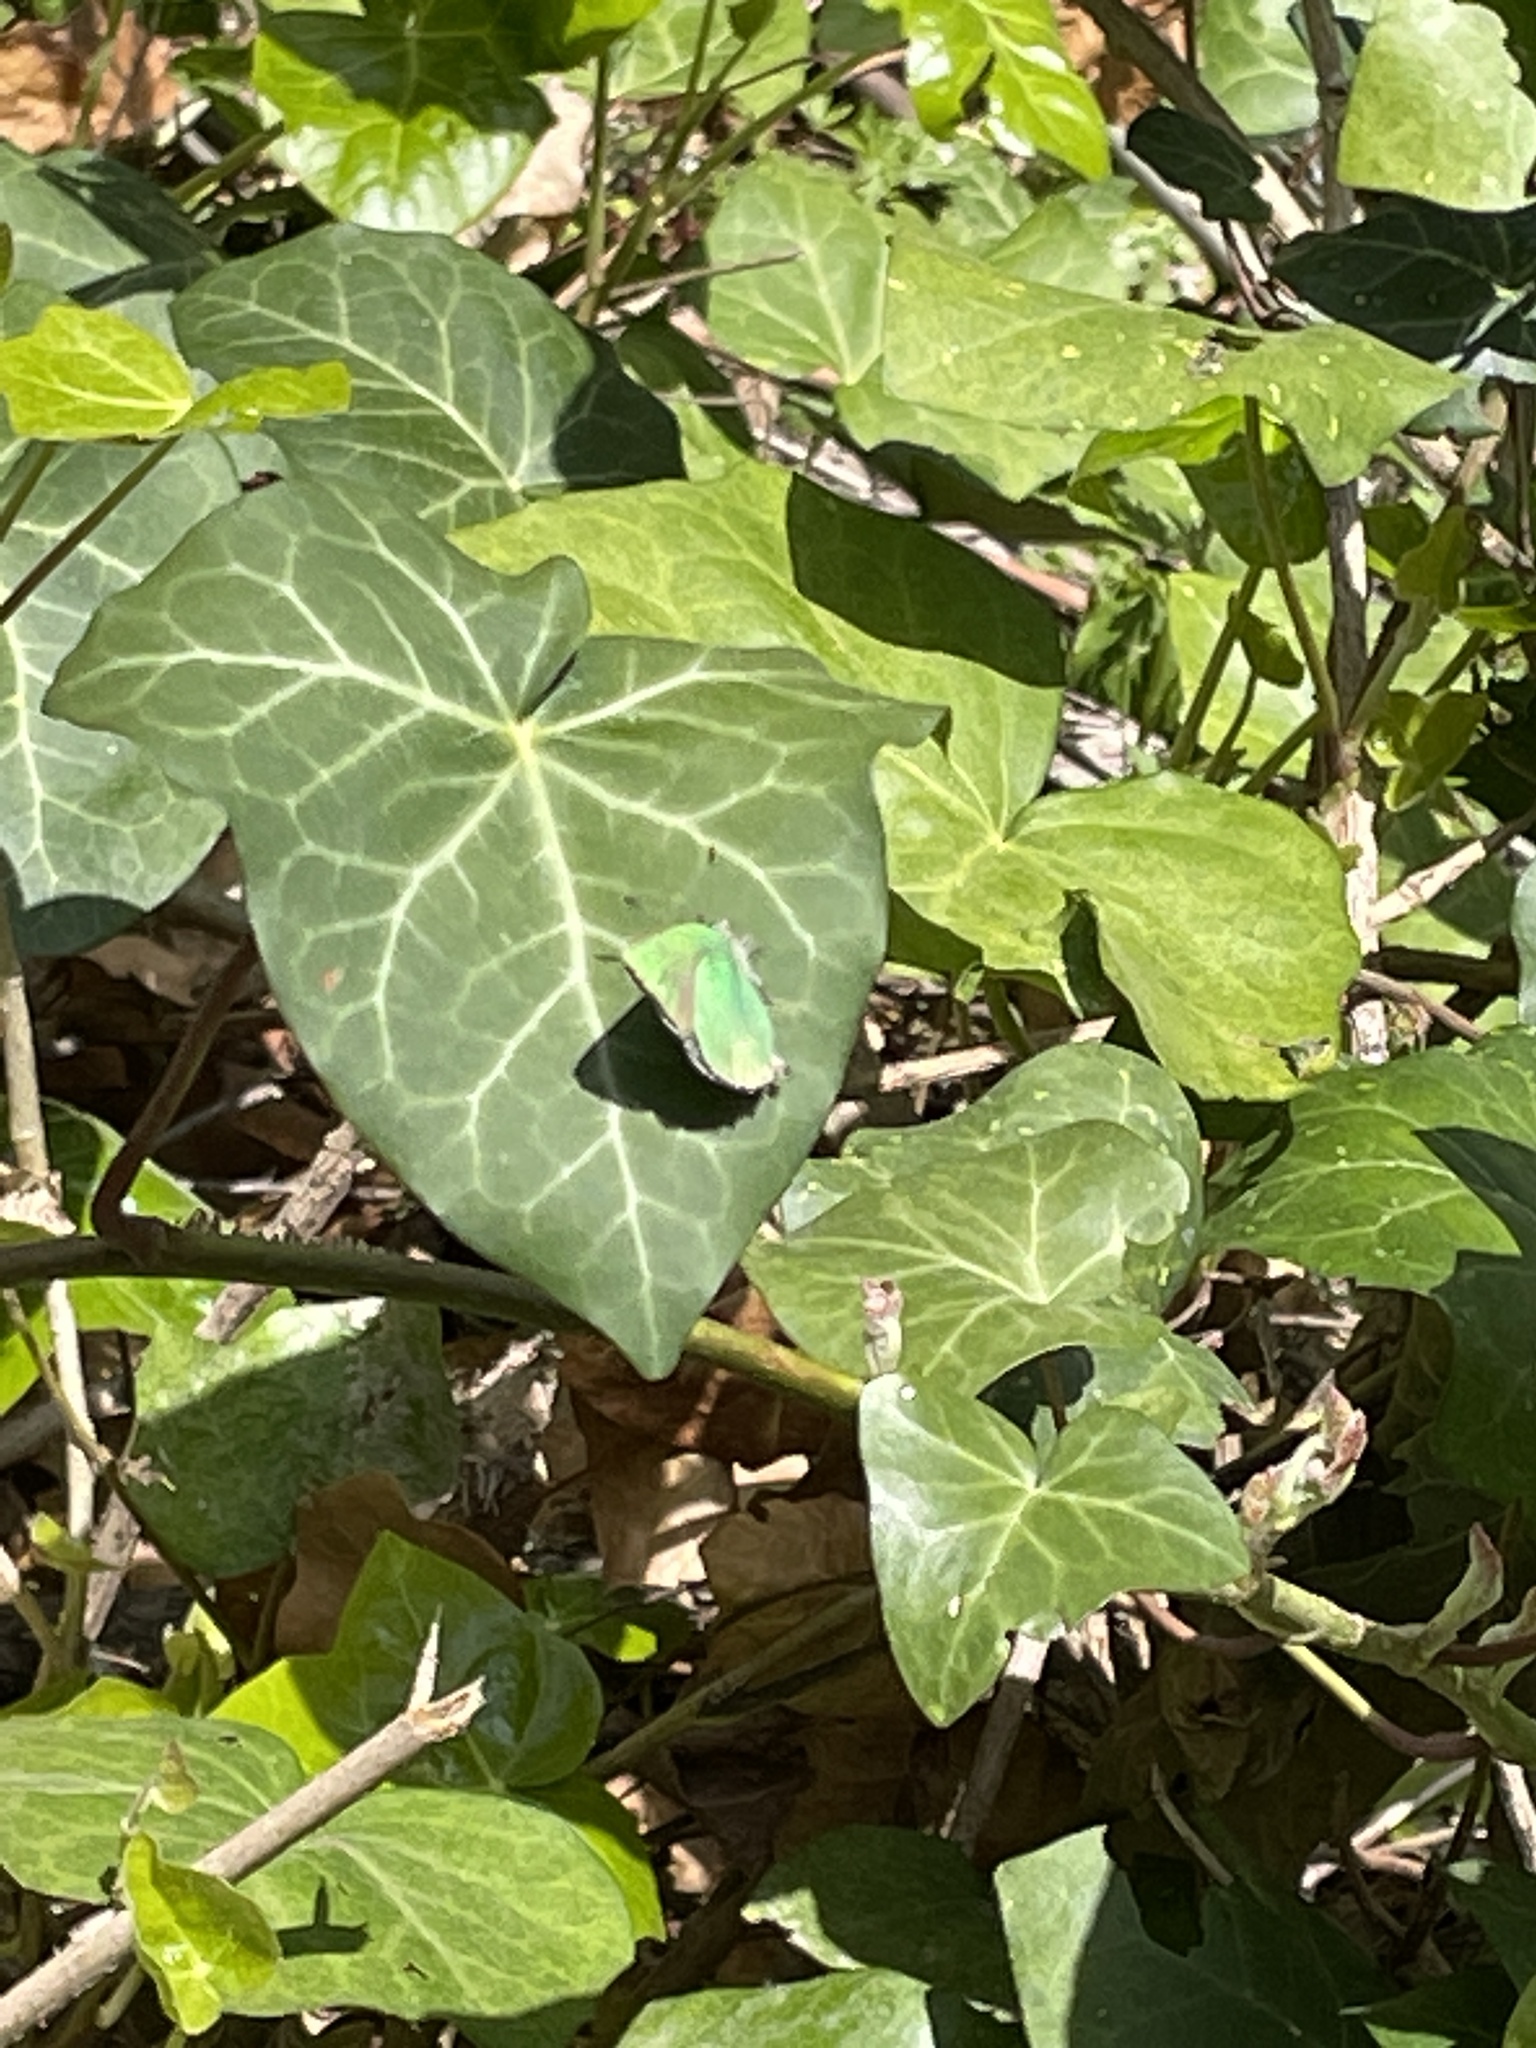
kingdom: Animalia
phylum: Arthropoda
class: Insecta
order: Lepidoptera
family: Lycaenidae
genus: Callophrys
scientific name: Callophrys rubi
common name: Green hairstreak
